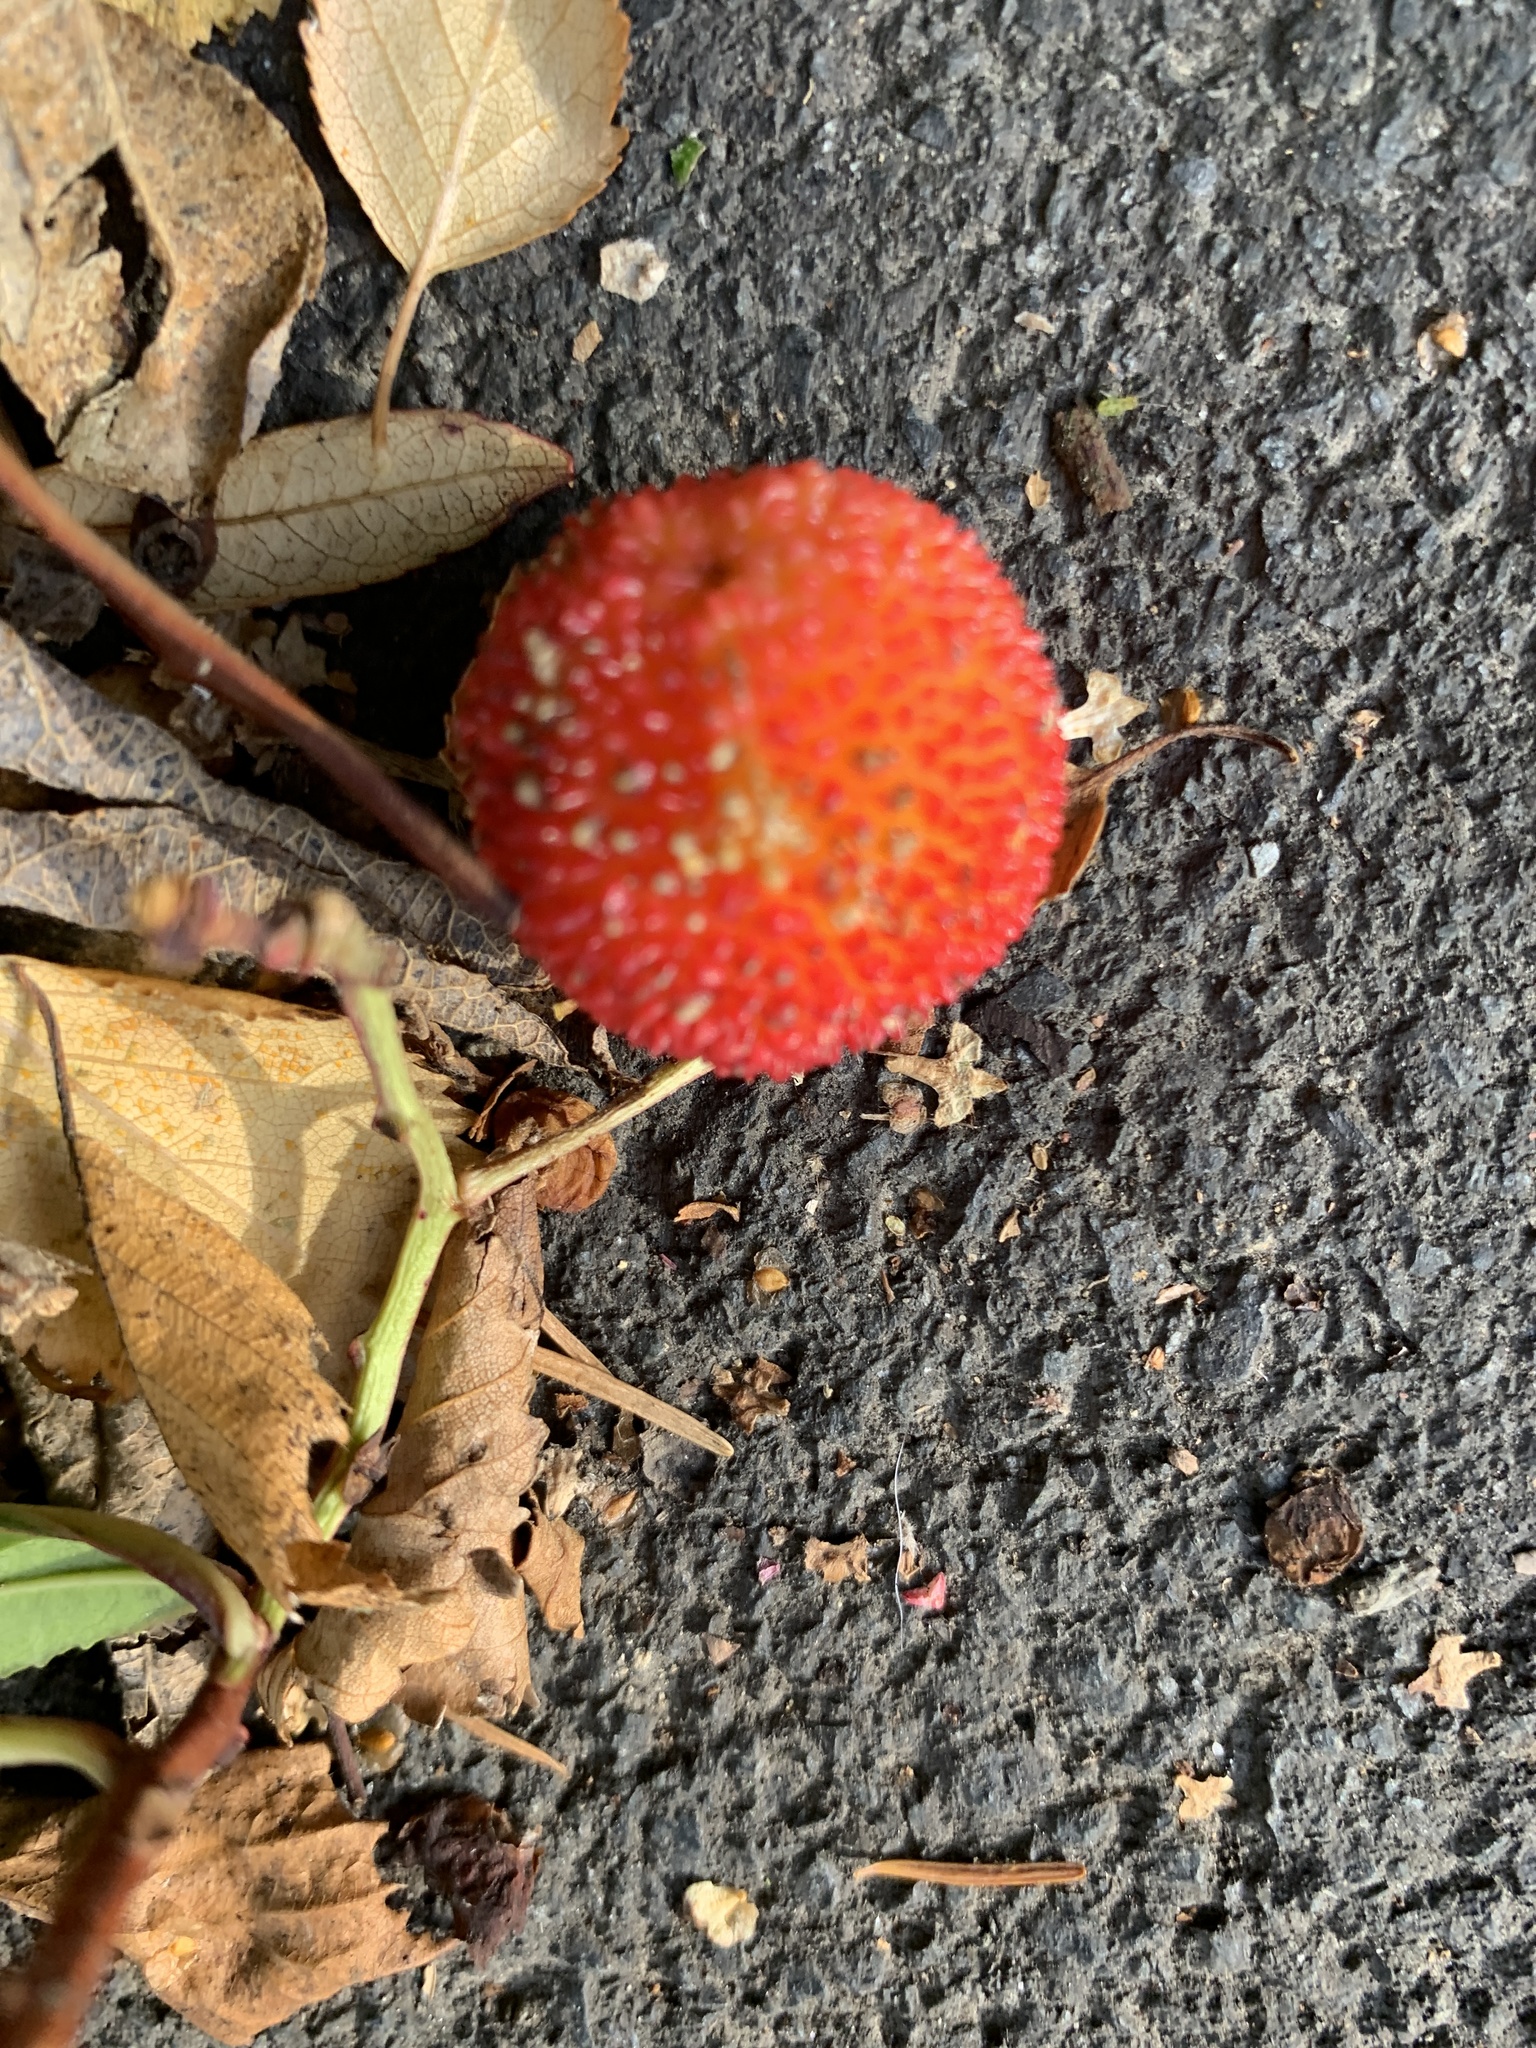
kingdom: Plantae
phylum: Tracheophyta
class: Magnoliopsida
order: Ericales
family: Ericaceae
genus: Arbutus
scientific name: Arbutus unedo
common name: Strawberry-tree
